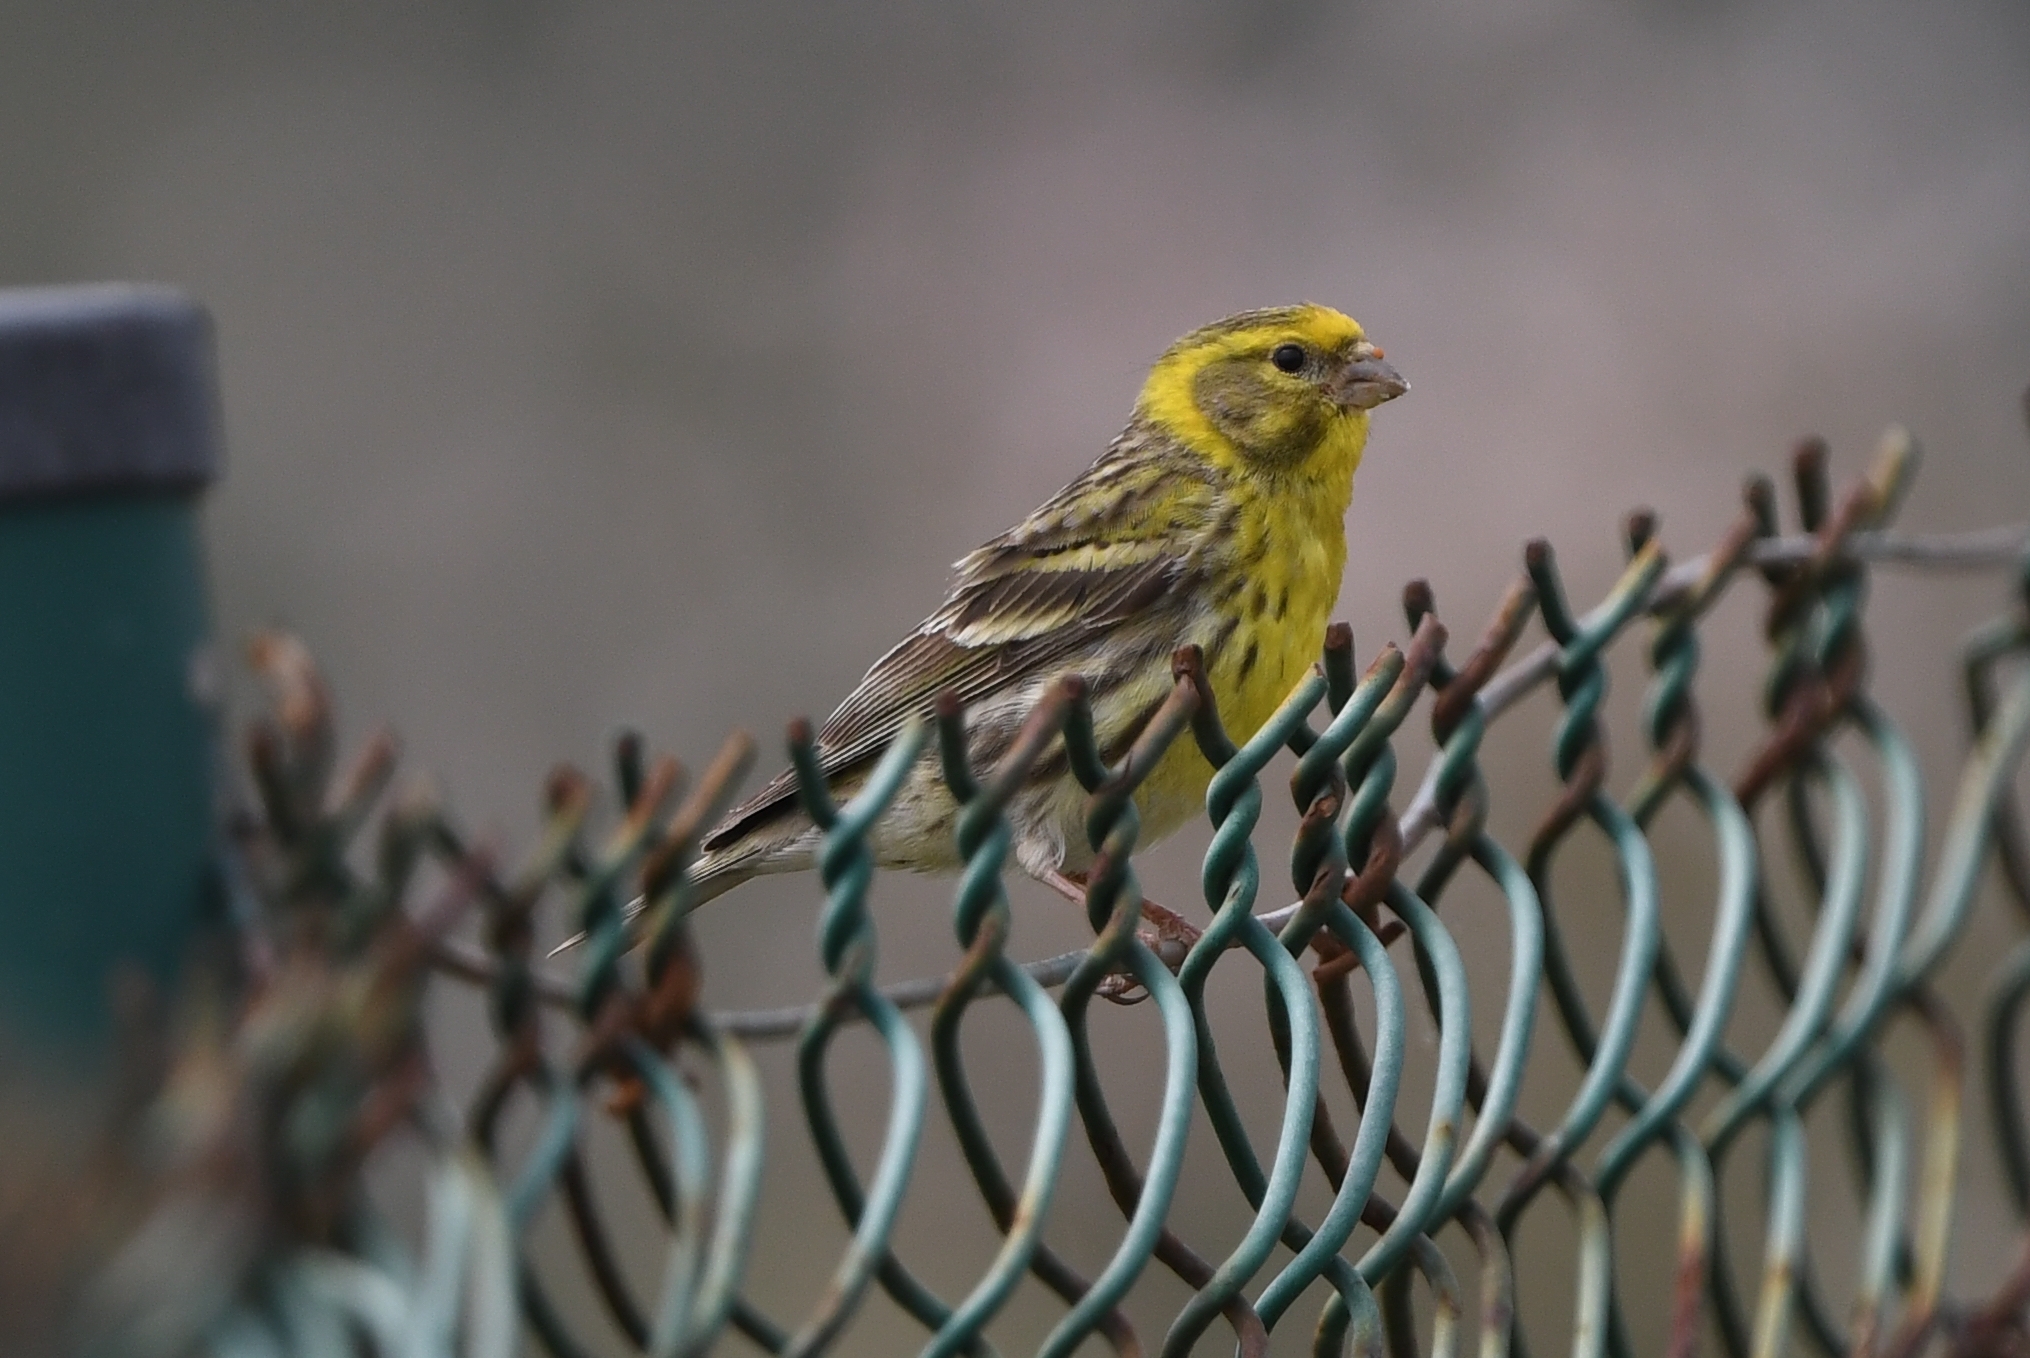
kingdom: Animalia
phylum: Chordata
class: Aves
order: Passeriformes
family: Fringillidae
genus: Serinus
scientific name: Serinus serinus
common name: European serin
